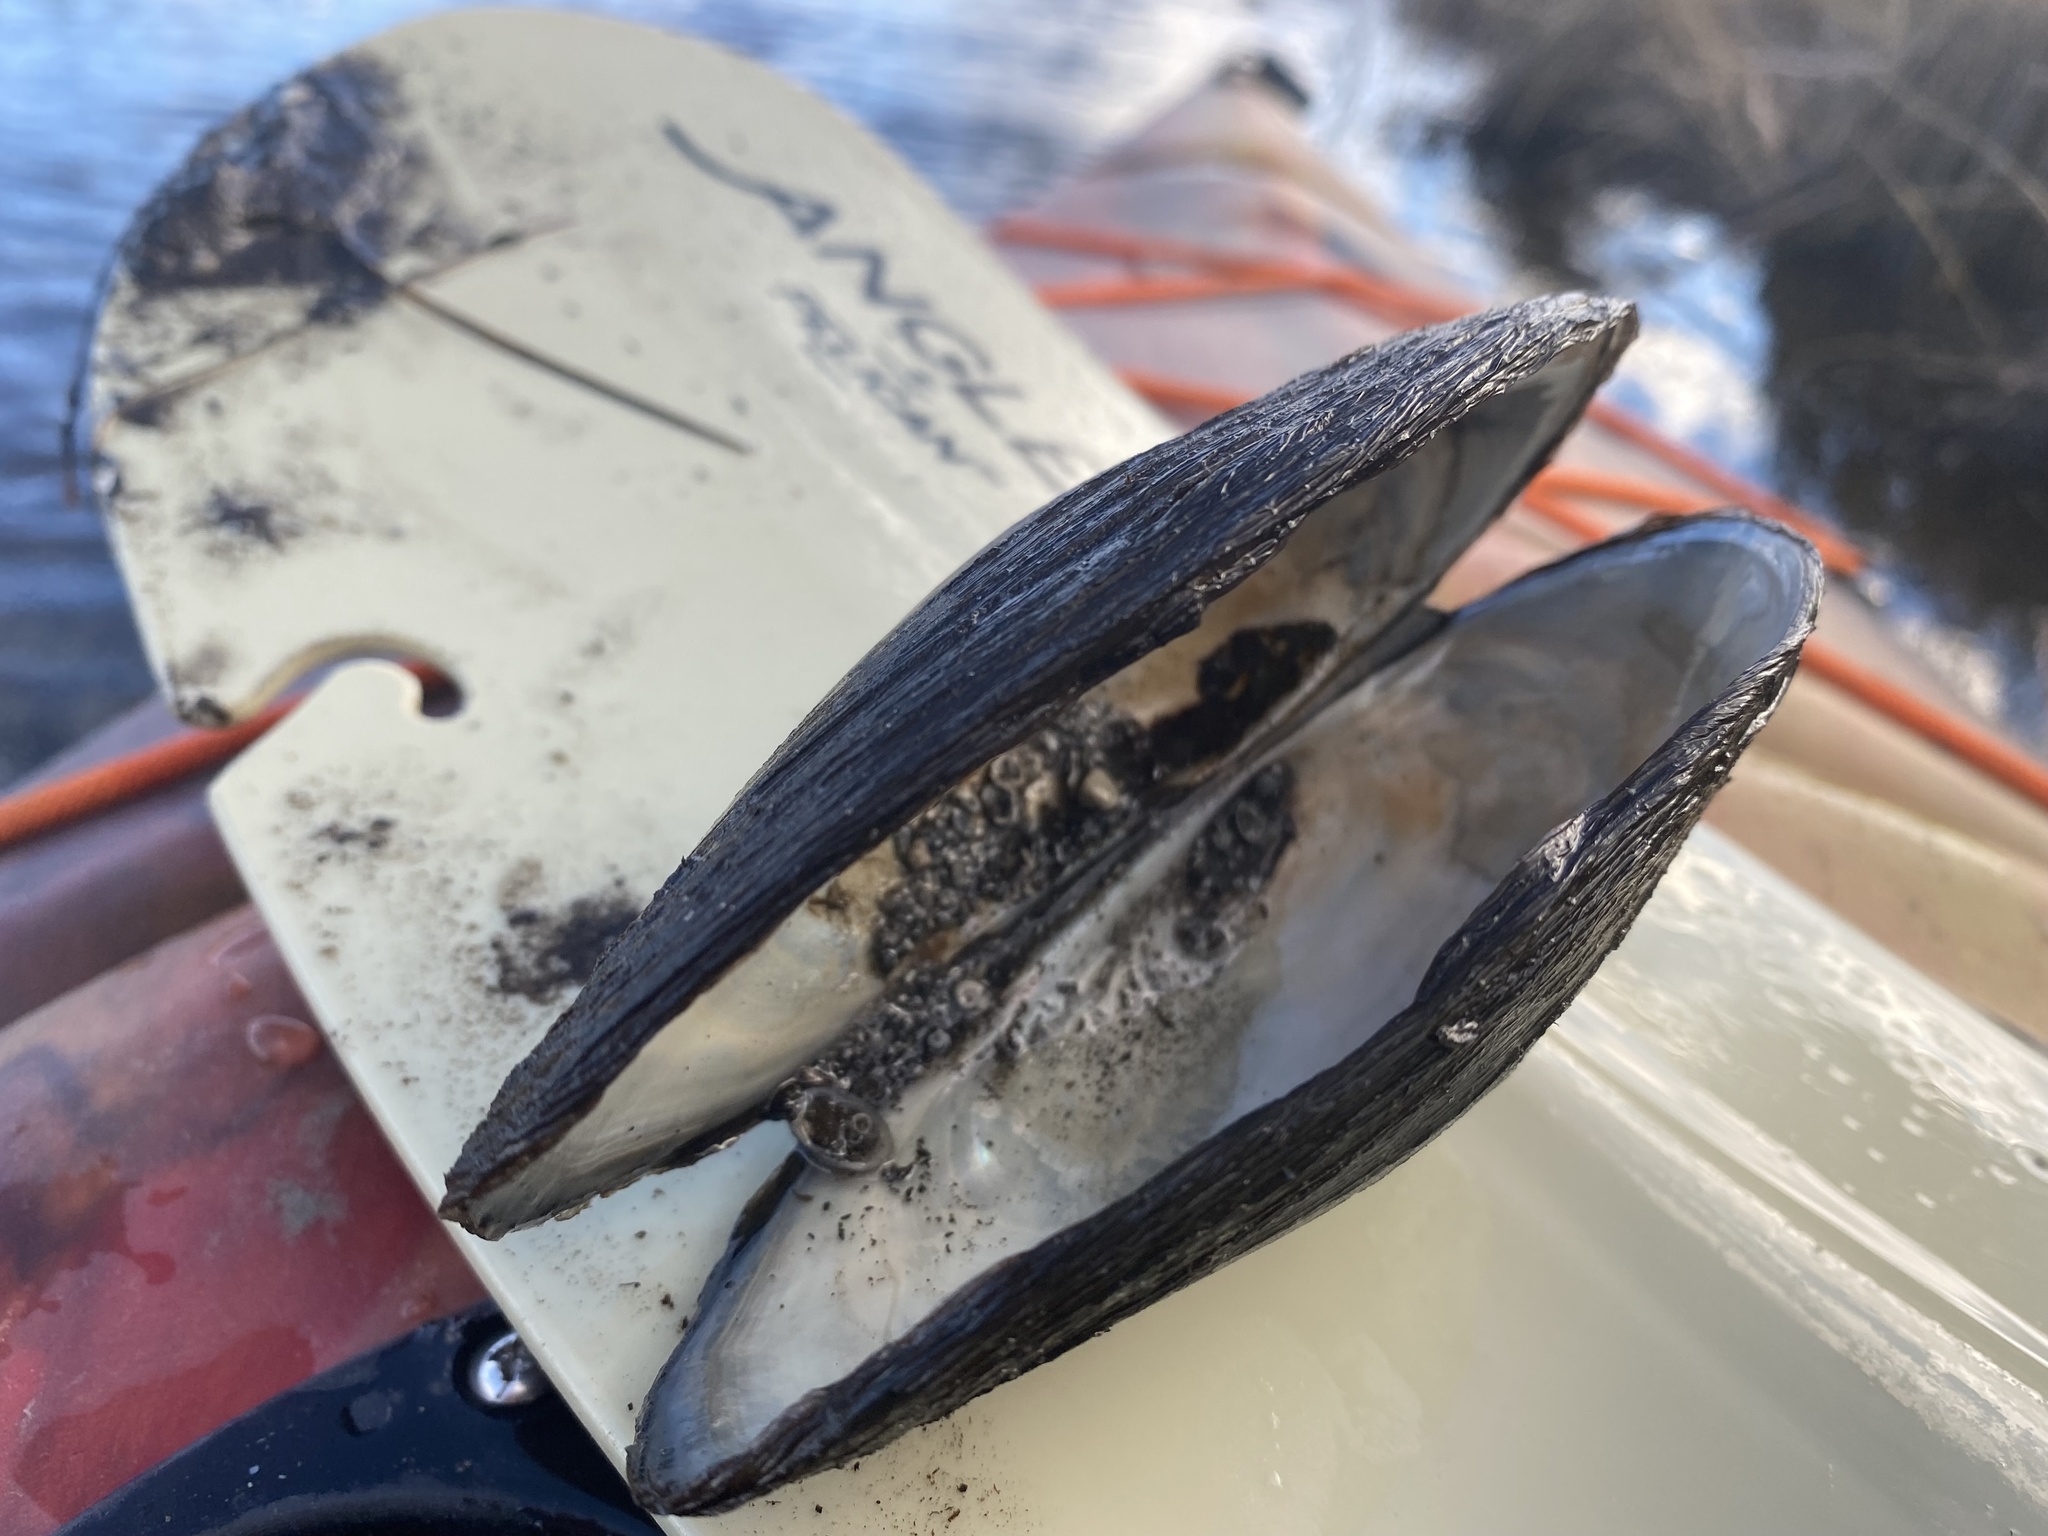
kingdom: Animalia
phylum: Mollusca
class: Bivalvia
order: Unionida
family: Unionidae
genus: Pyganodon
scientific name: Pyganodon grandis
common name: Giant floater
